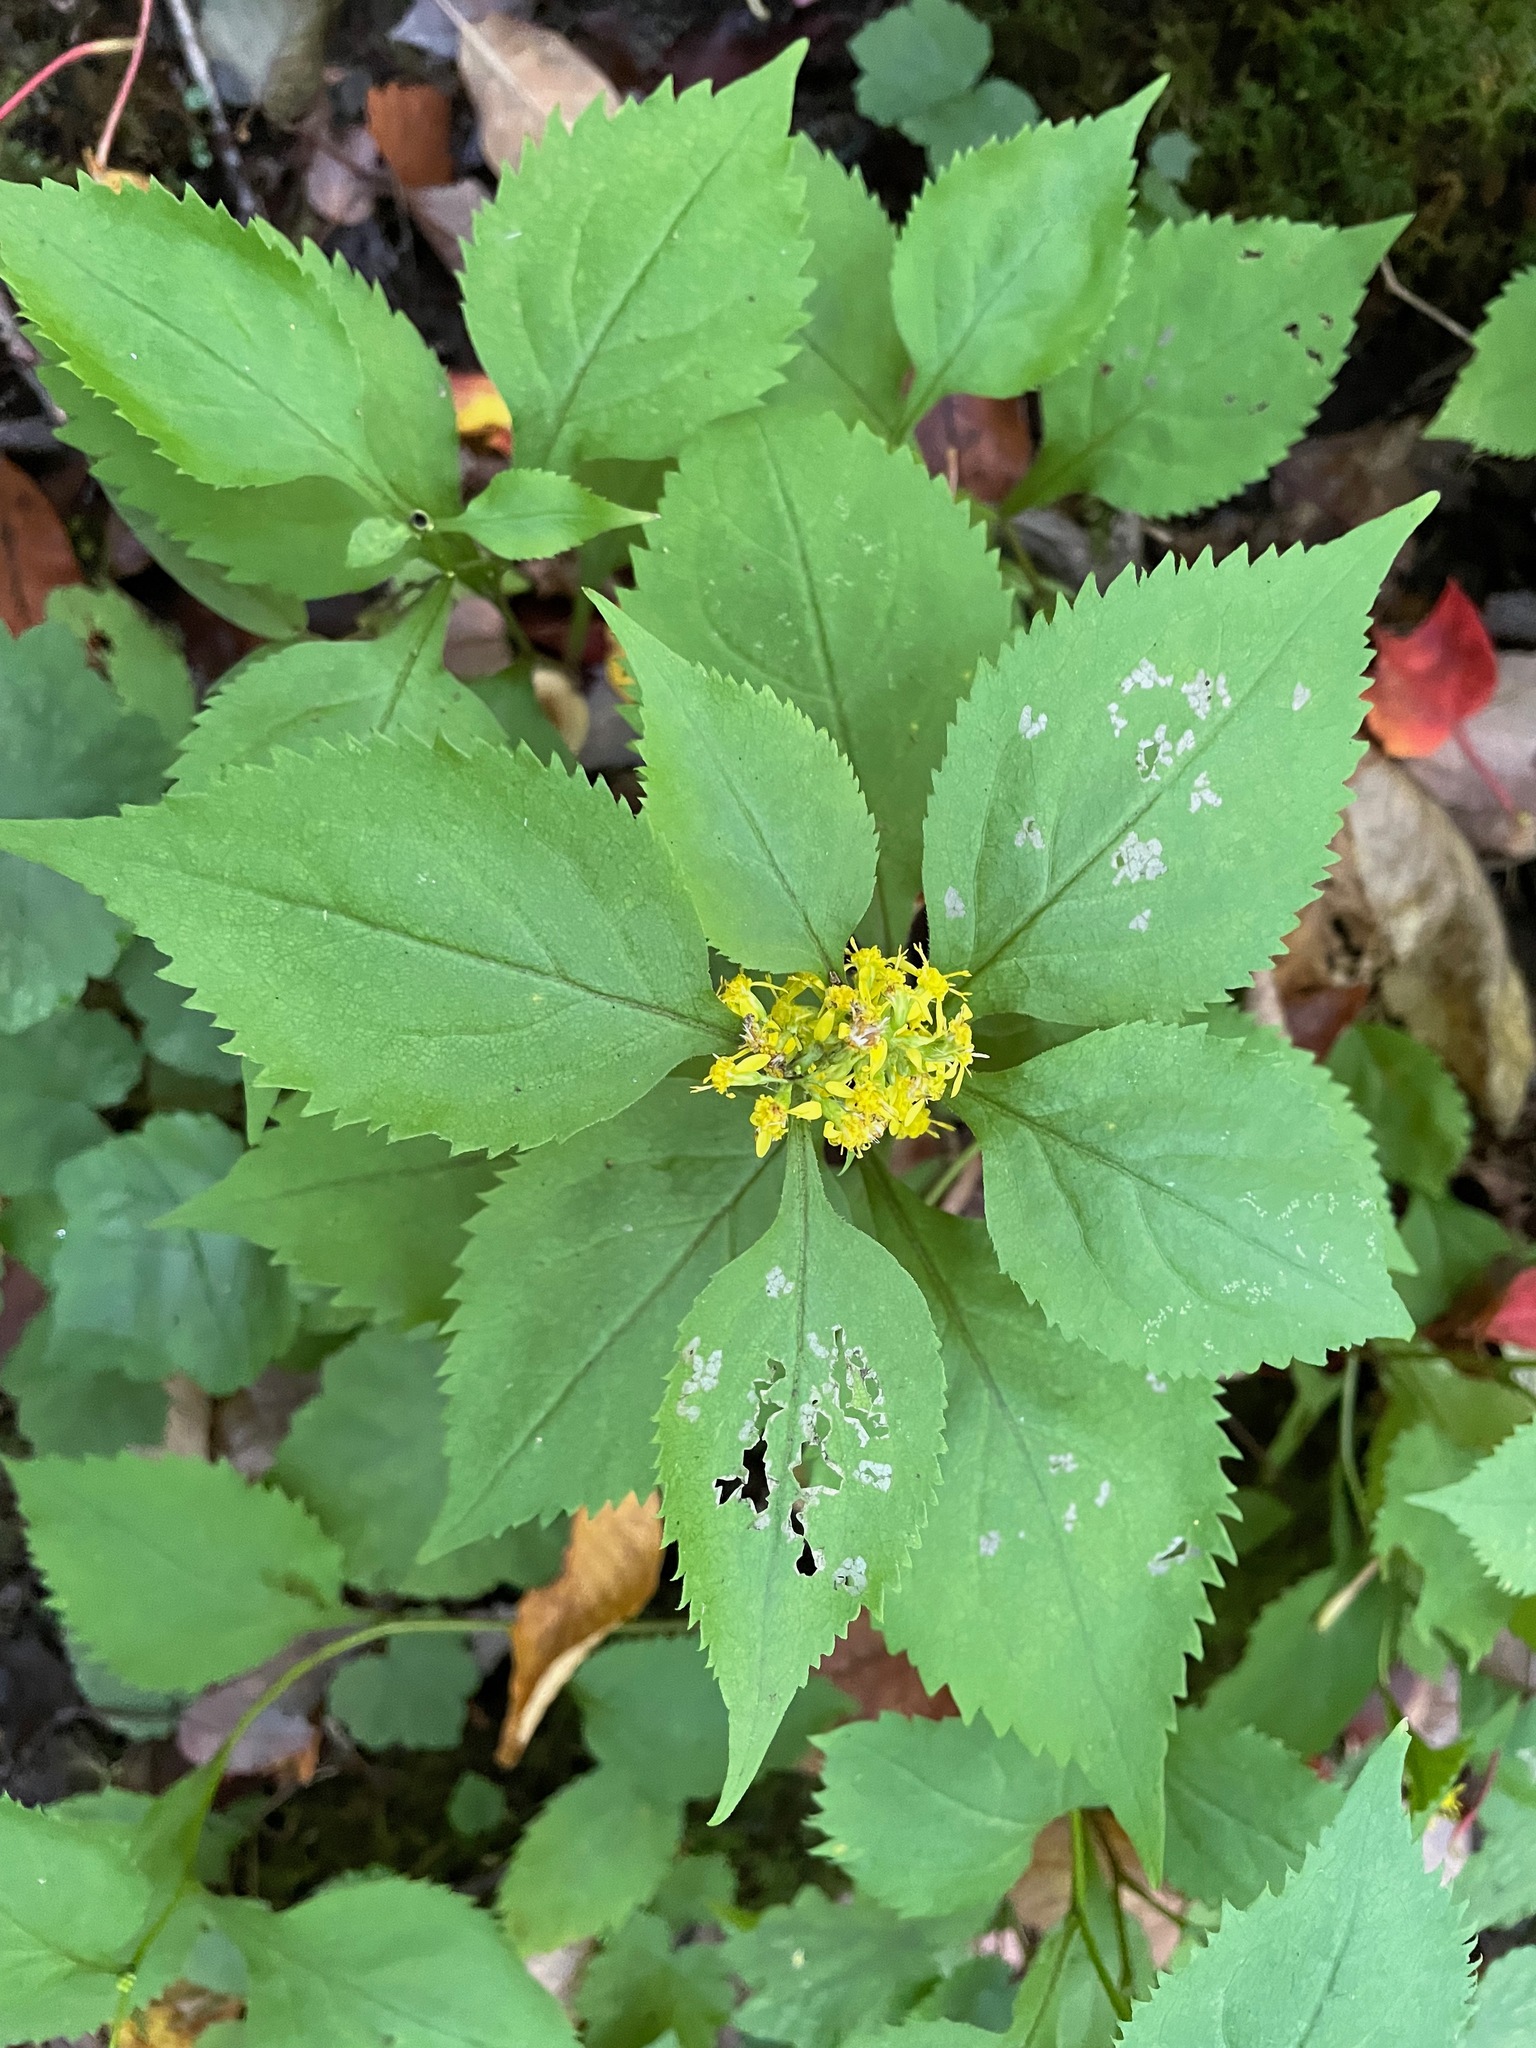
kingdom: Plantae
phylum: Tracheophyta
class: Magnoliopsida
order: Asterales
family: Asteraceae
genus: Solidago
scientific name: Solidago flexicaulis
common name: Zig-zag goldenrod
